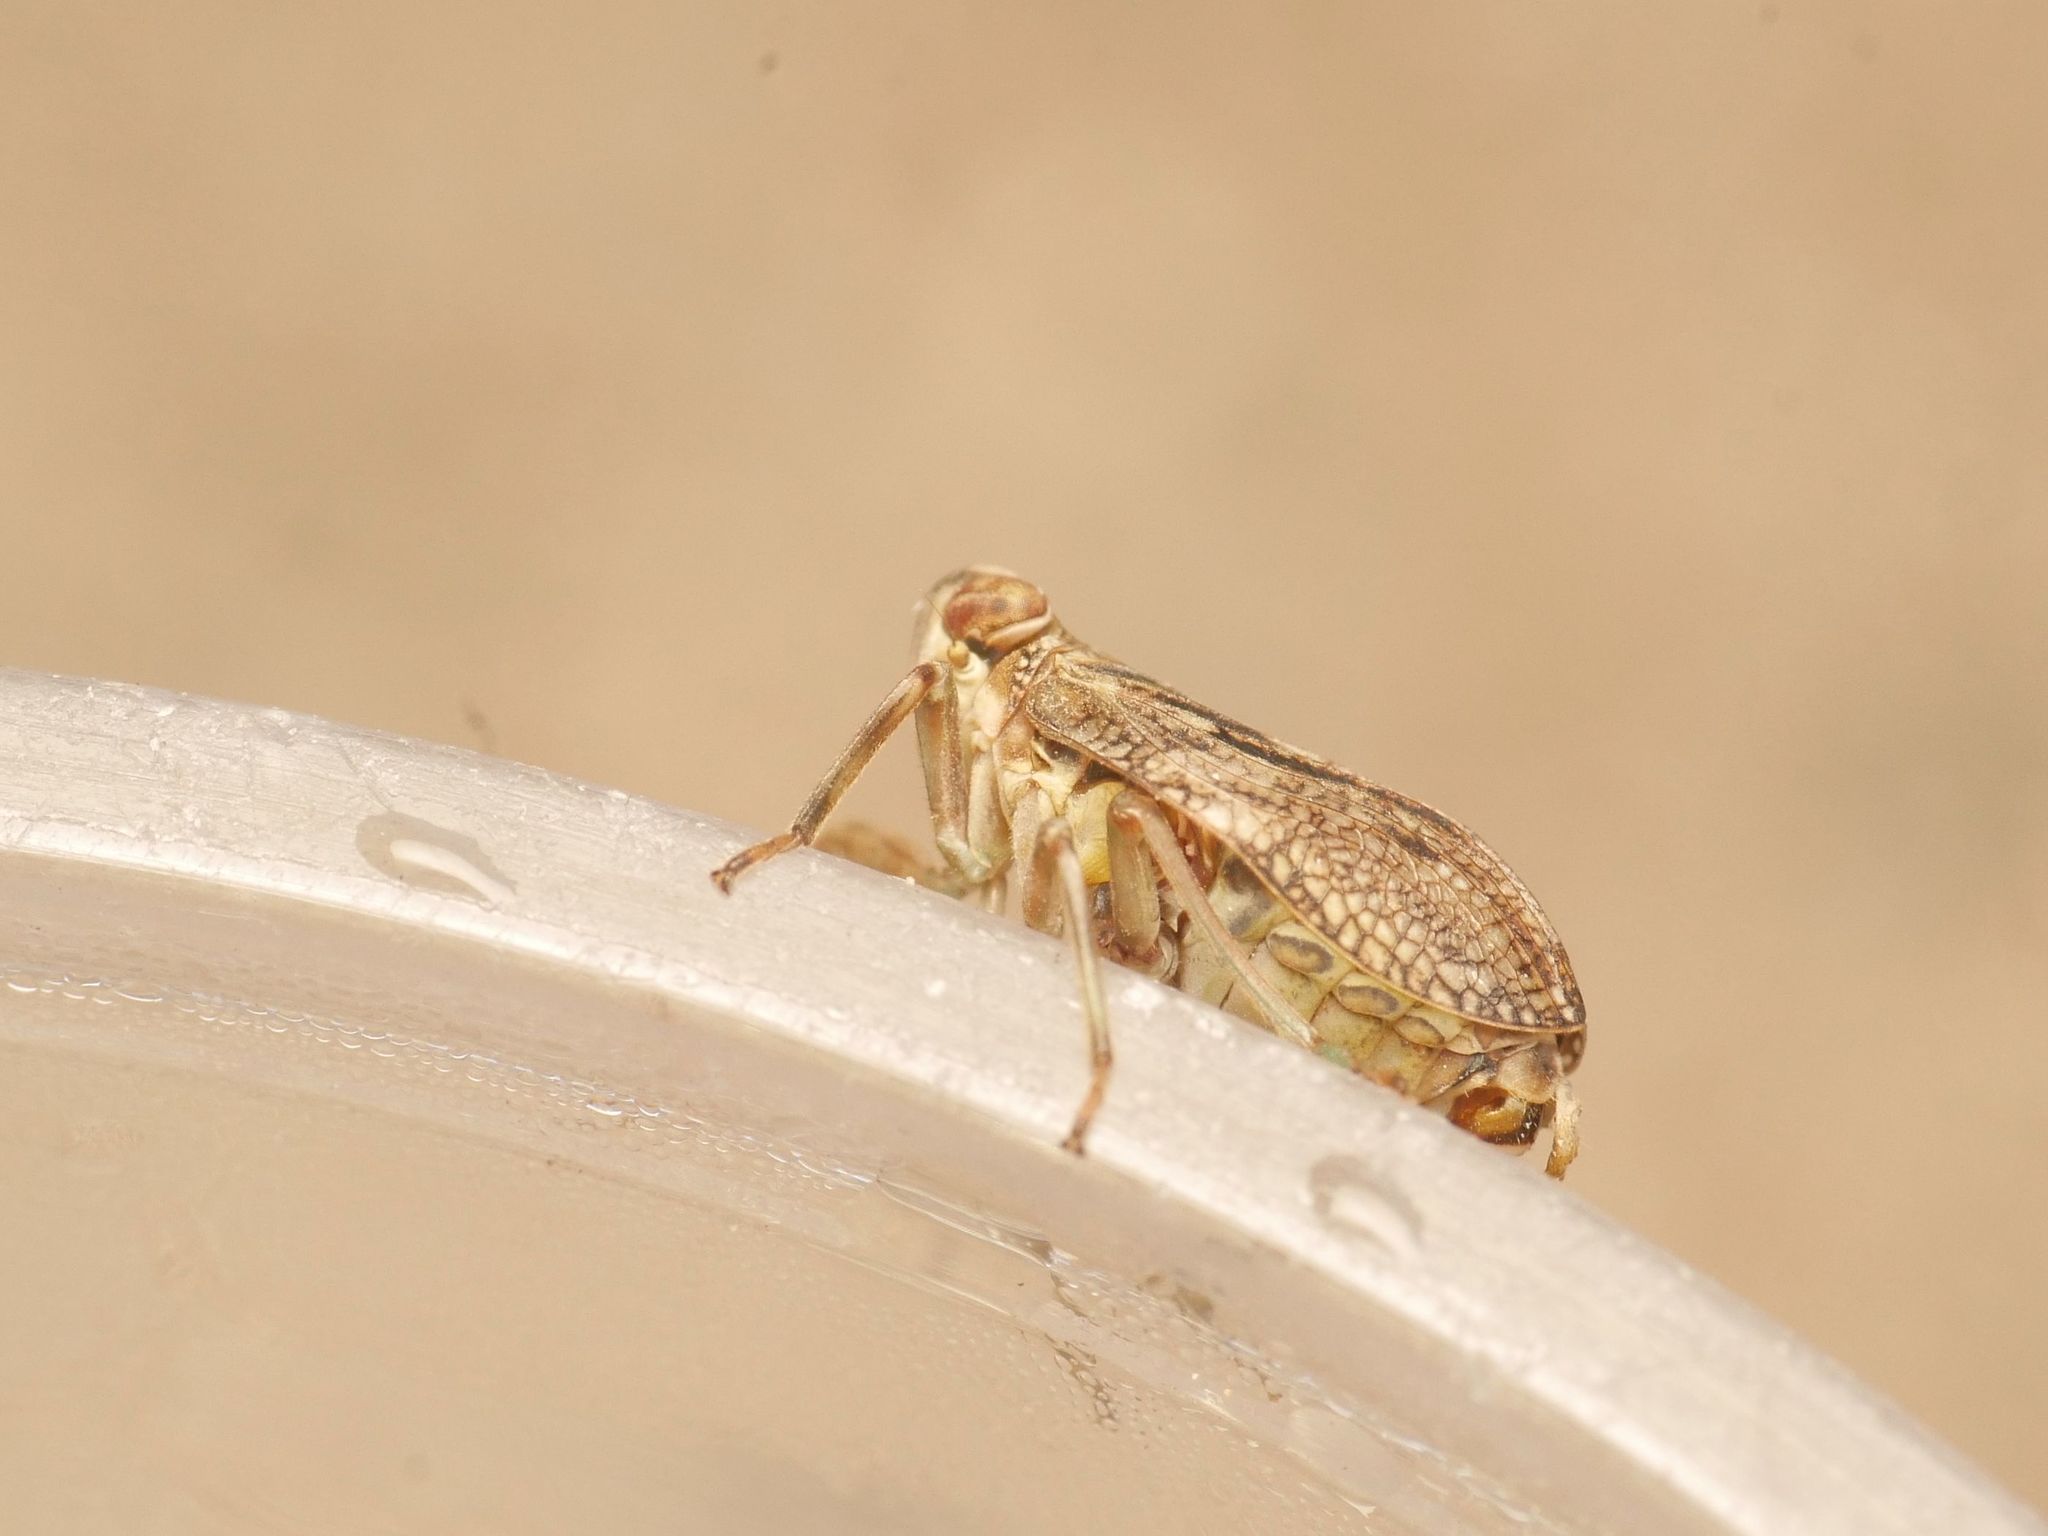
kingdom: Animalia
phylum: Arthropoda
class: Insecta
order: Hemiptera
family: Issidae
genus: Issus
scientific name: Issus coleoptratus
